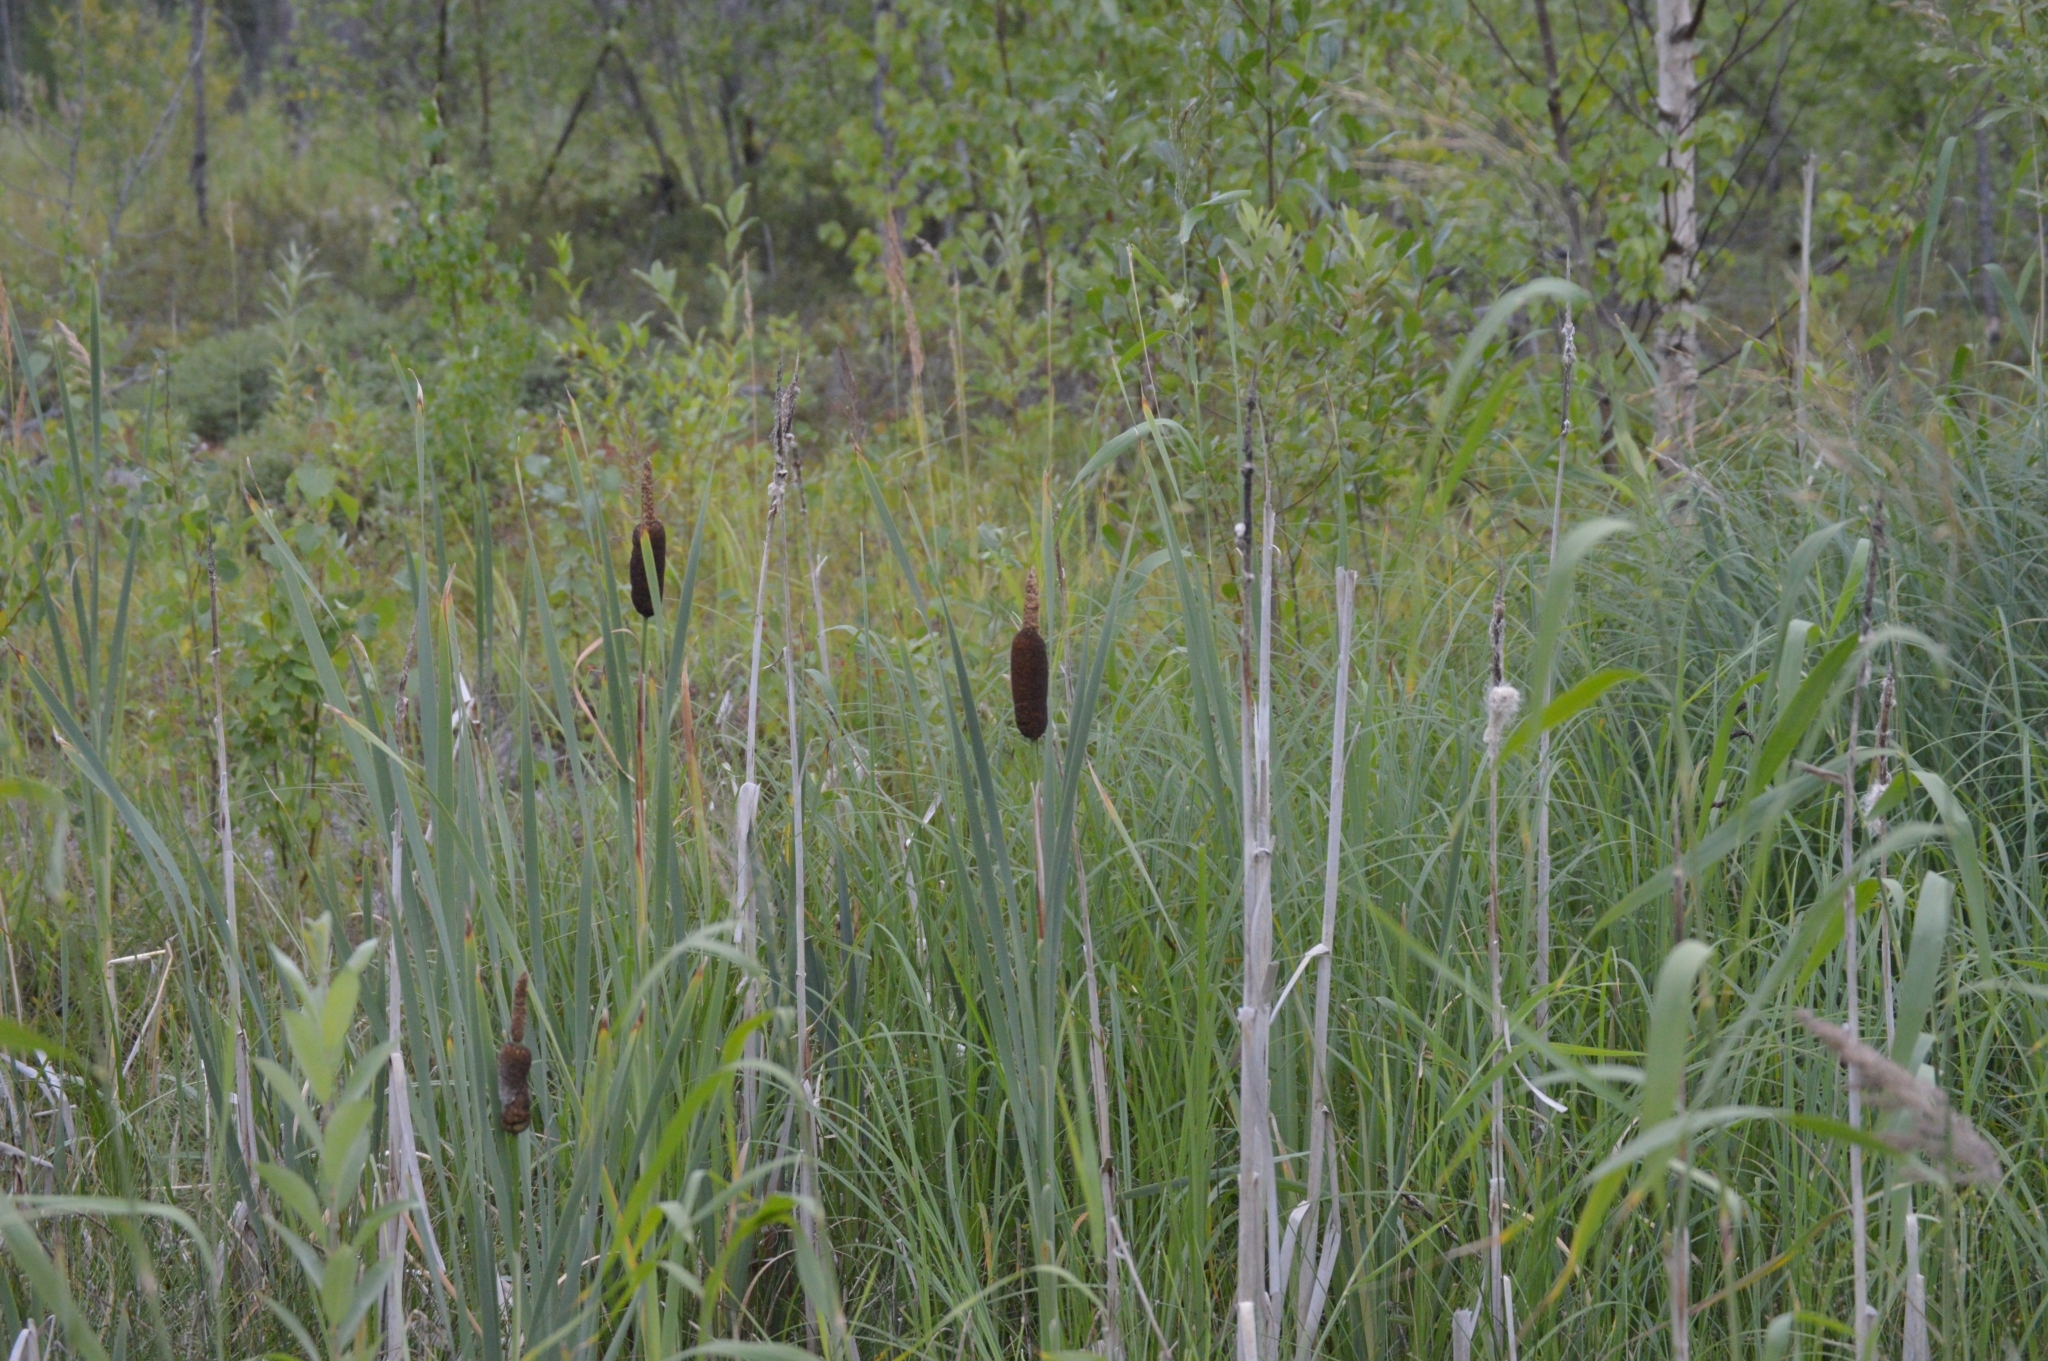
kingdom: Plantae
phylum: Tracheophyta
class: Liliopsida
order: Poales
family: Typhaceae
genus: Typha
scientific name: Typha latifolia
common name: Broadleaf cattail
